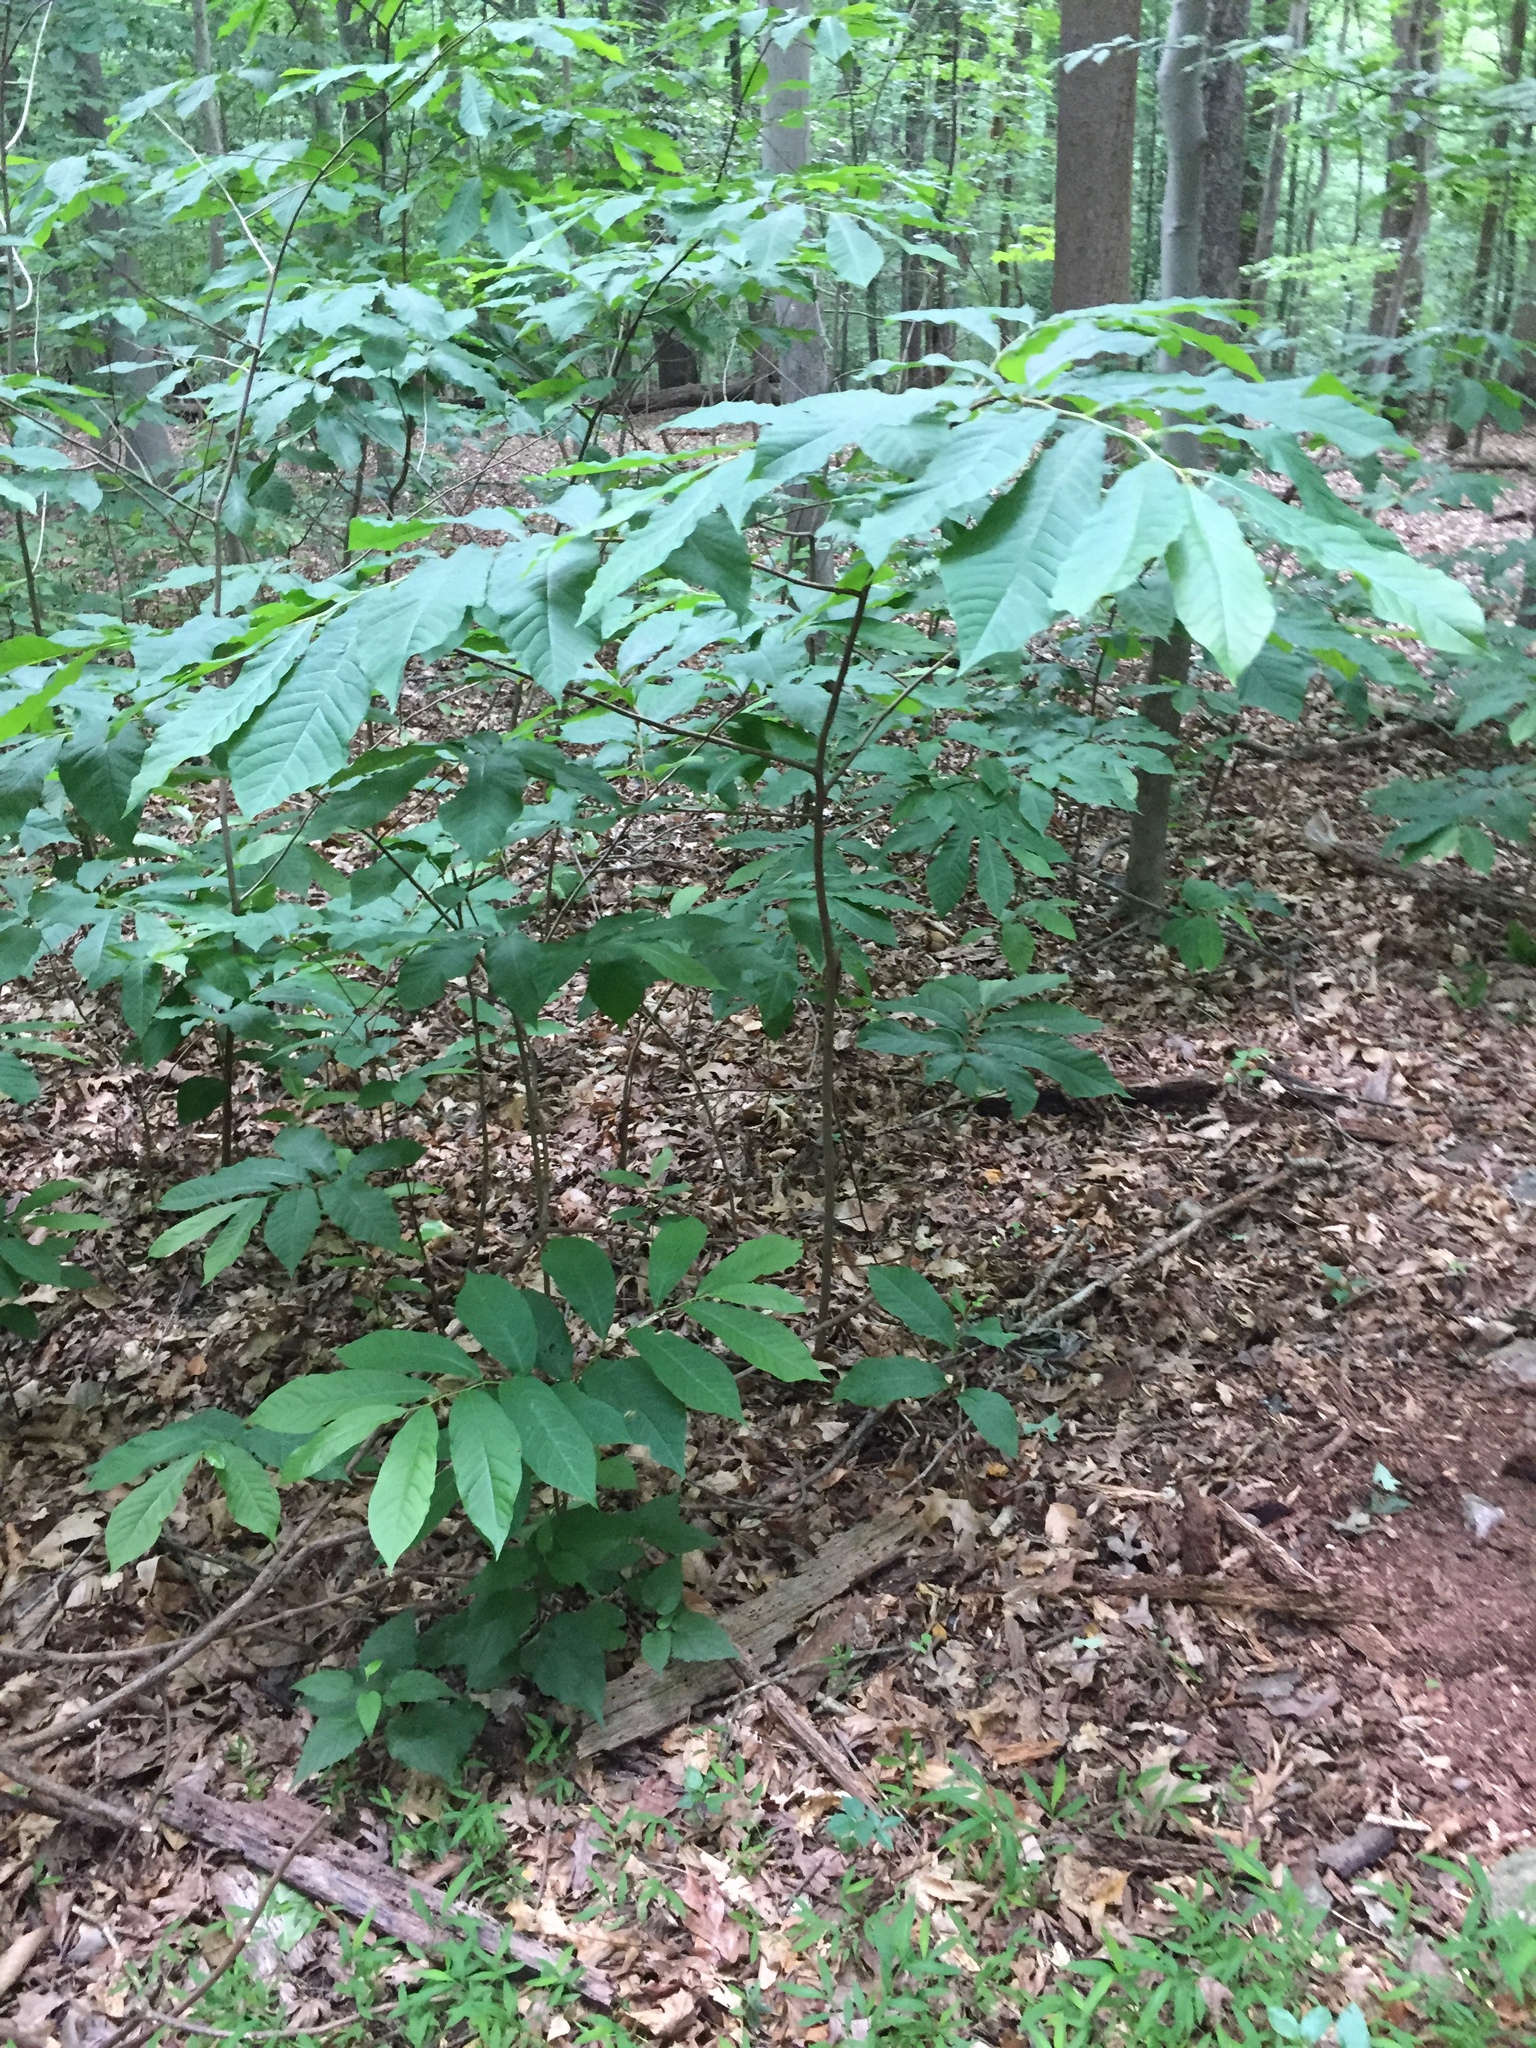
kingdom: Plantae
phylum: Tracheophyta
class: Magnoliopsida
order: Magnoliales
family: Annonaceae
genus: Asimina
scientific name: Asimina triloba
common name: Dog-banana
